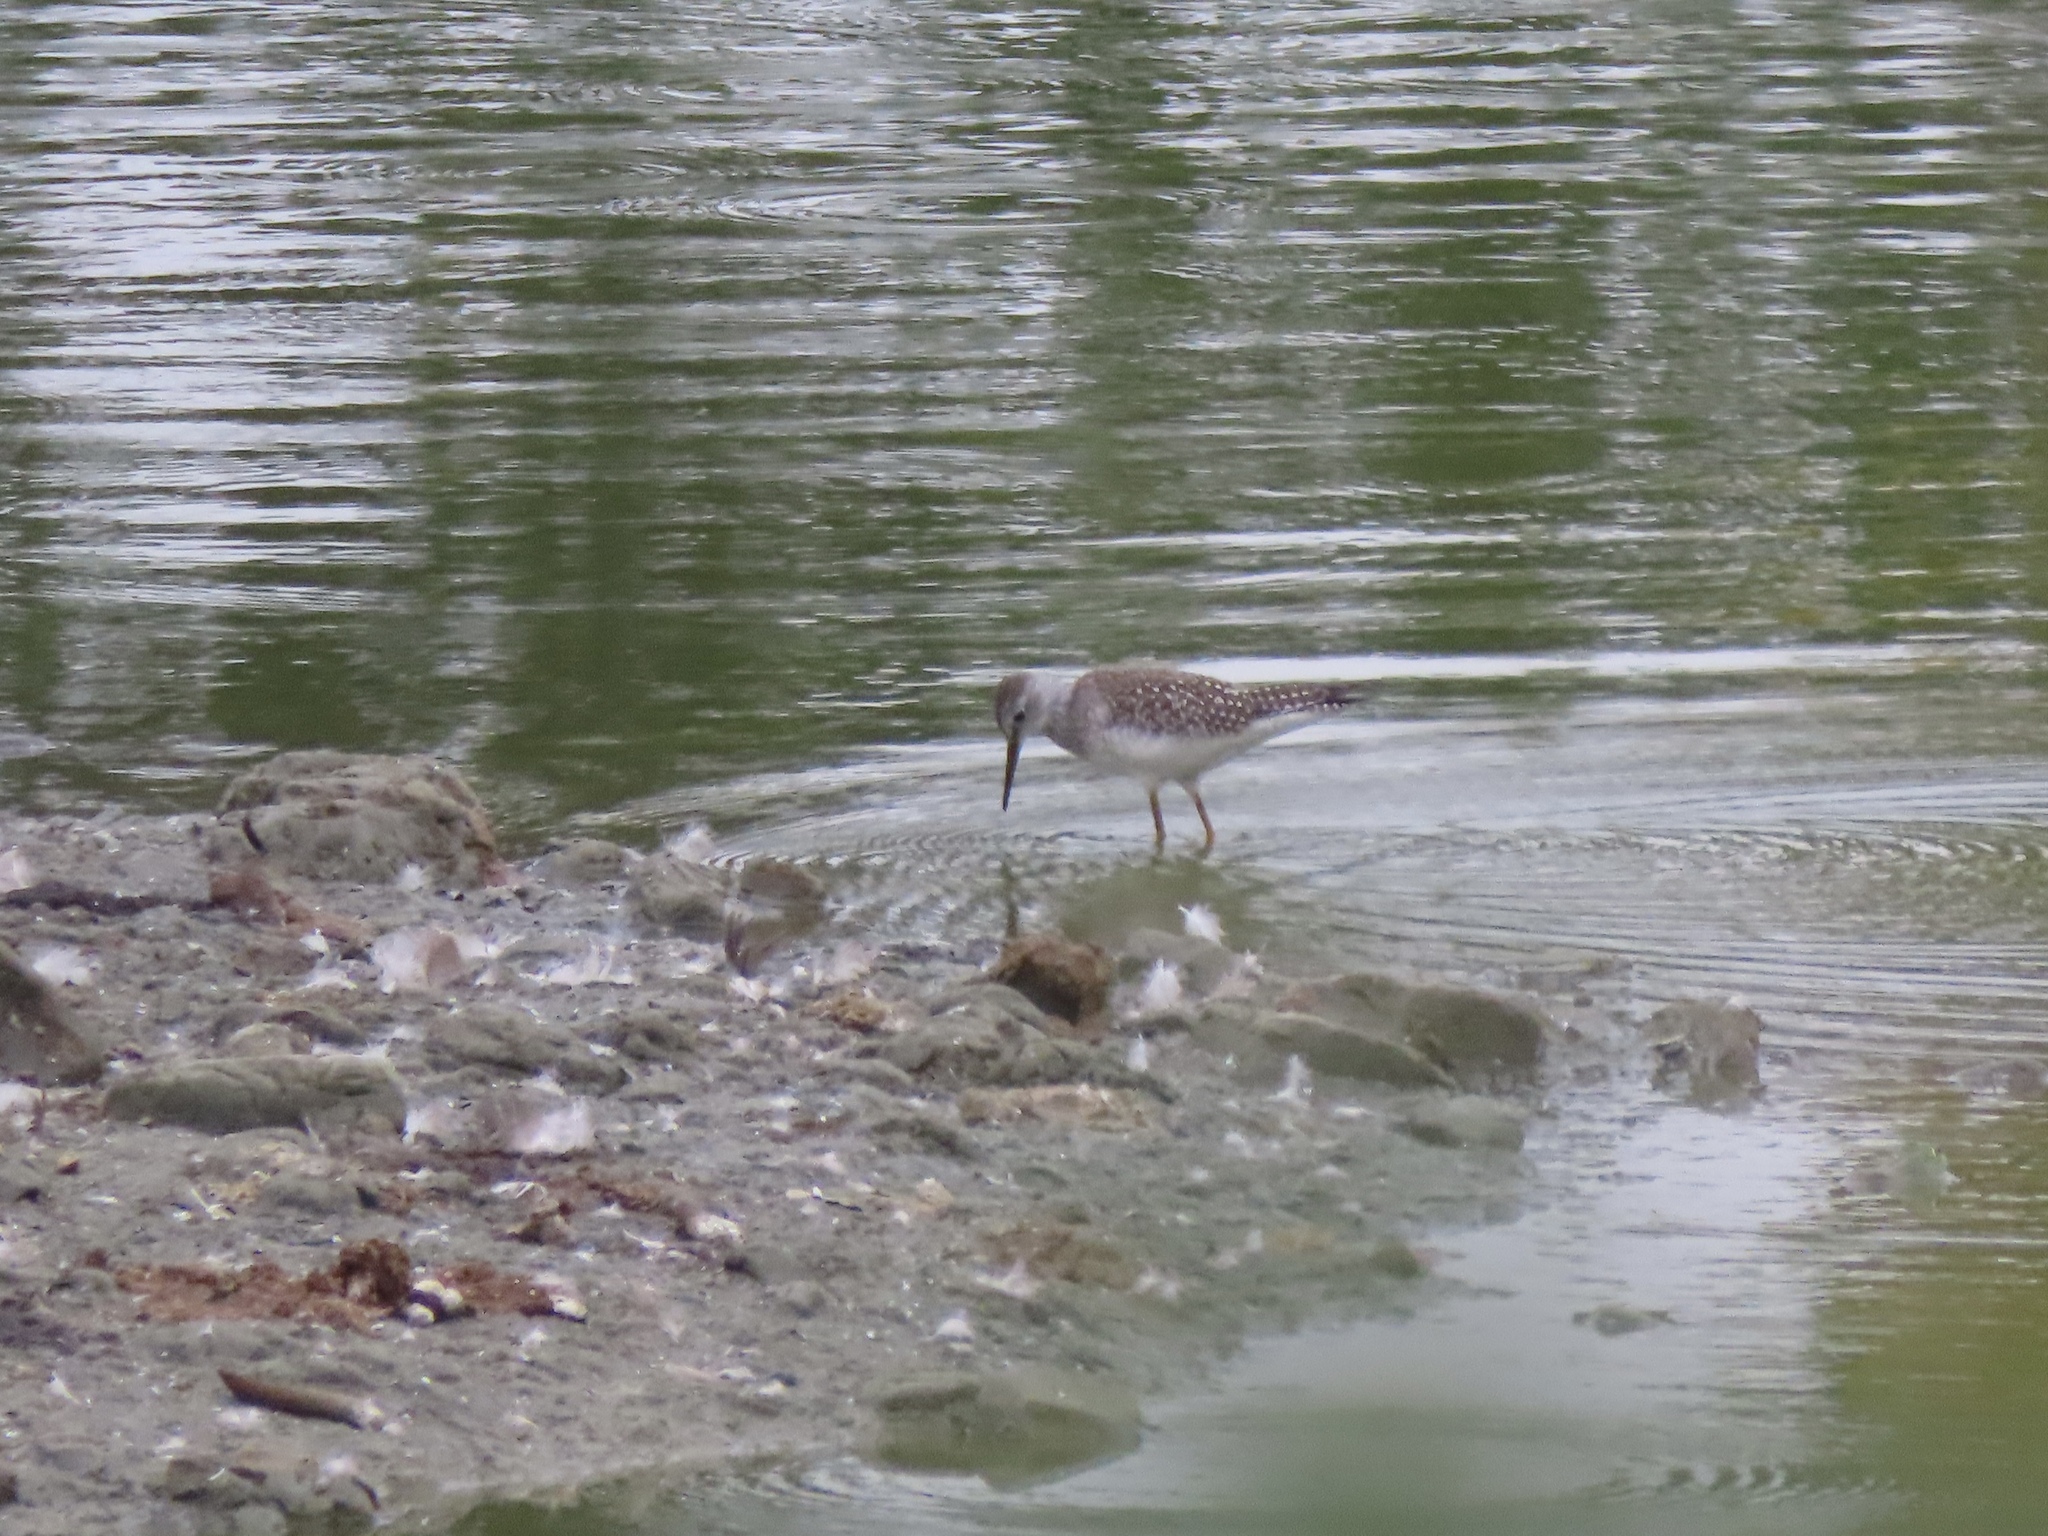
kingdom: Animalia
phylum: Chordata
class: Aves
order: Charadriiformes
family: Scolopacidae
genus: Tringa
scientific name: Tringa flavipes
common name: Lesser yellowlegs
